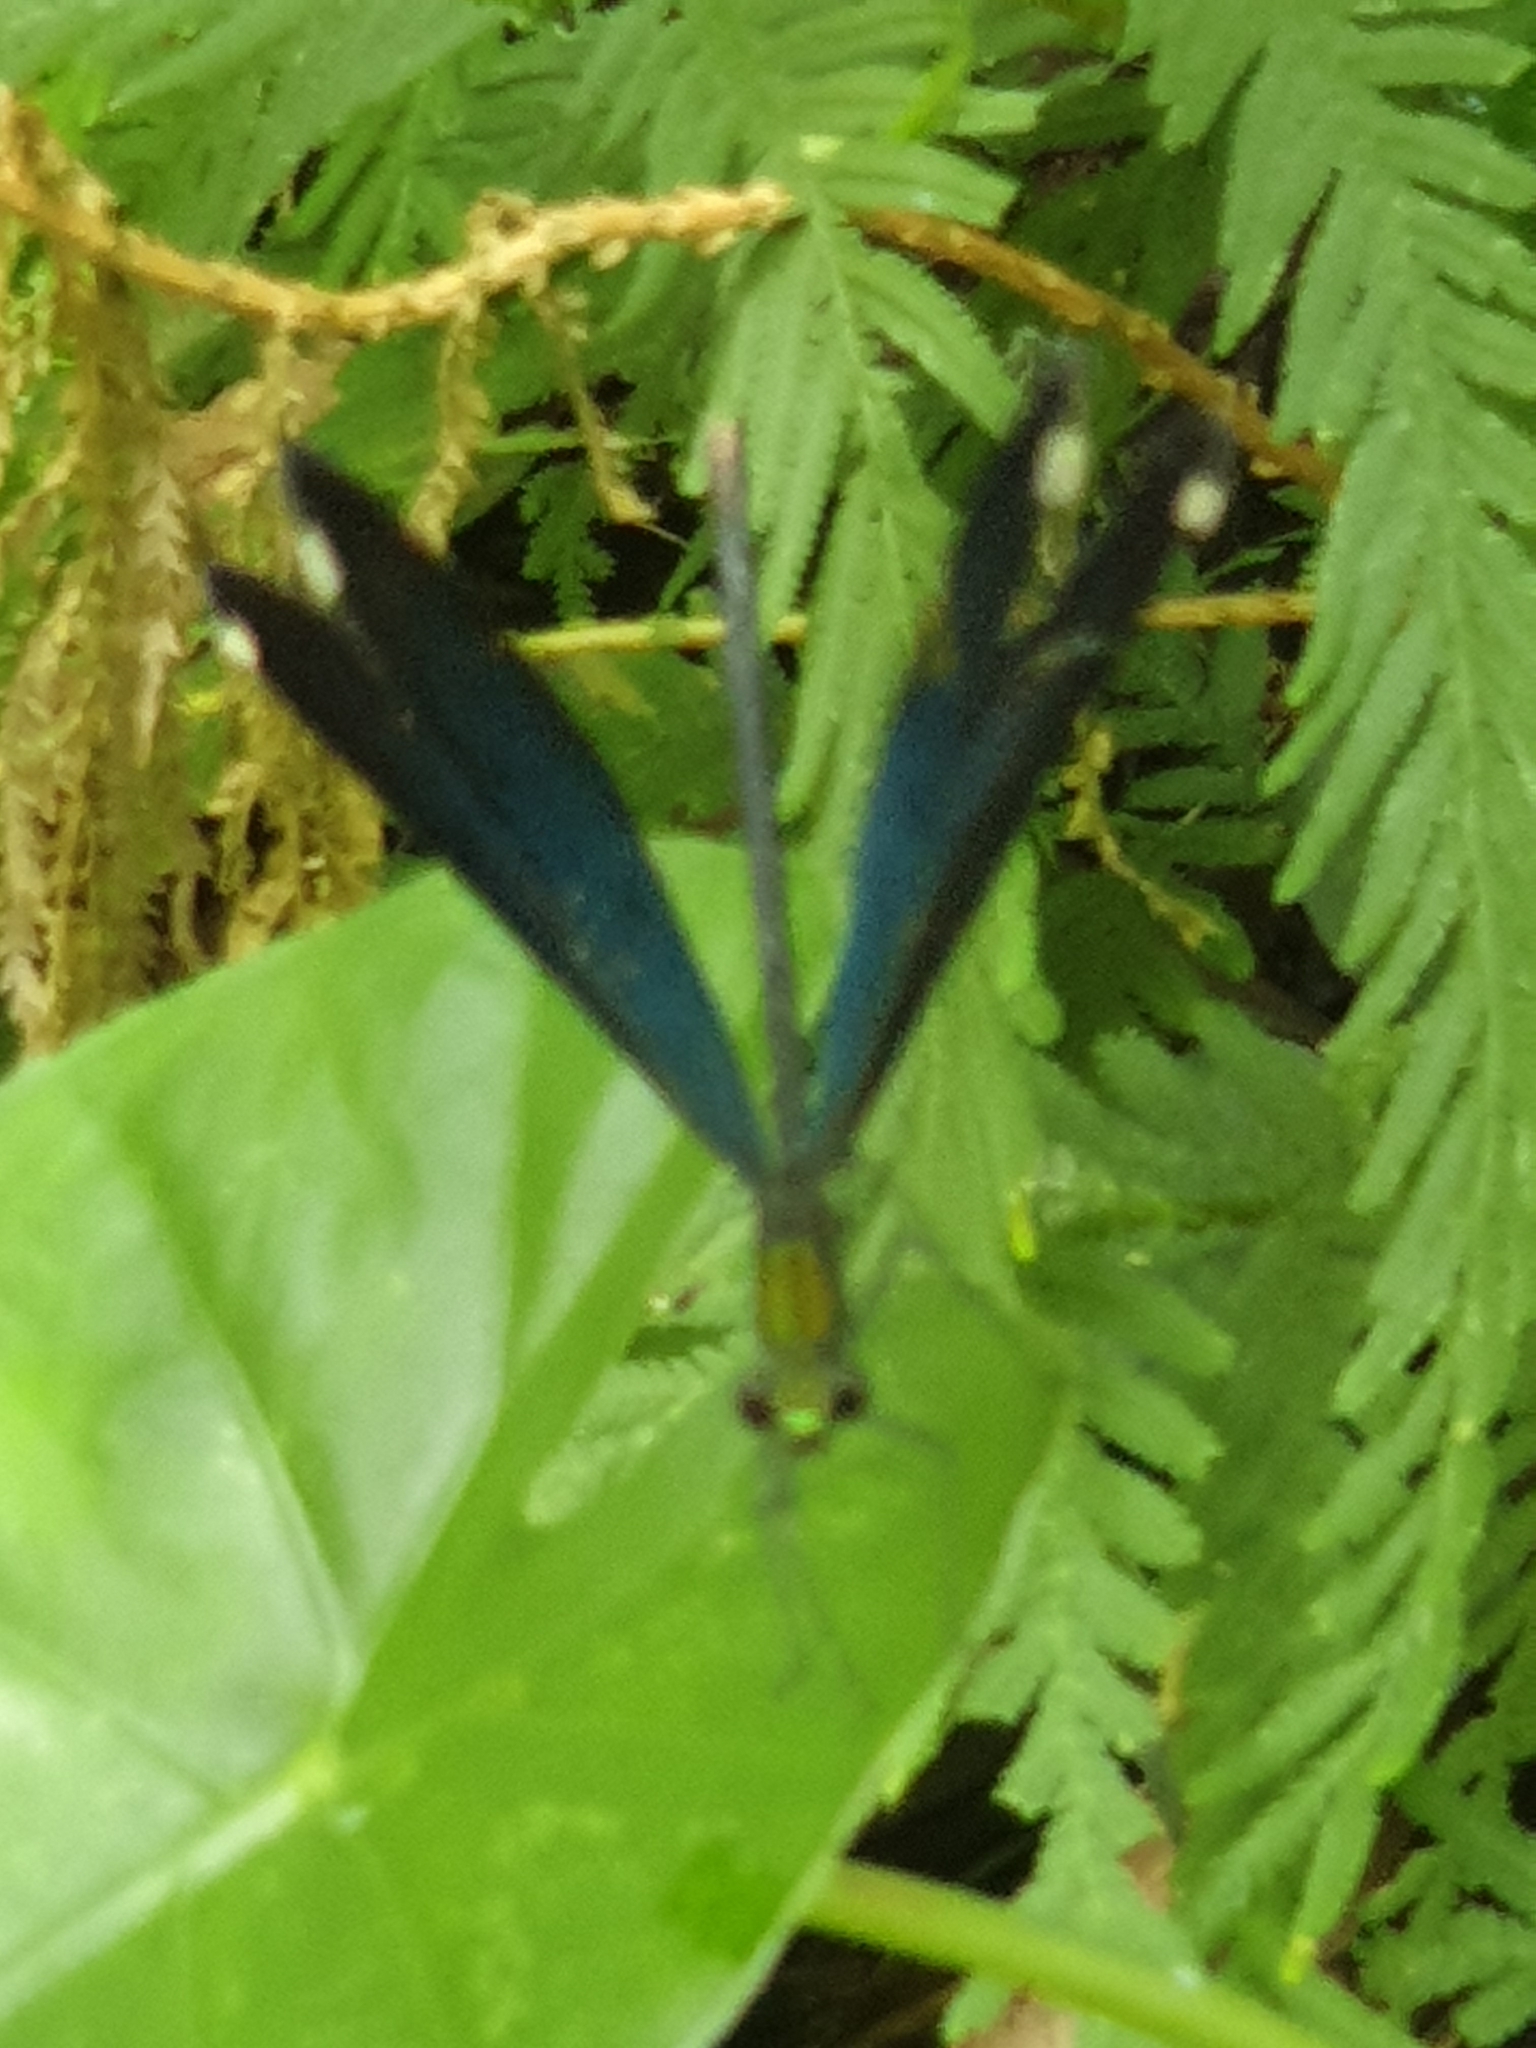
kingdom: Animalia
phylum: Arthropoda
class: Insecta
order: Odonata
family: Calopterygidae
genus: Matrona
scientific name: Matrona cyanoptera
